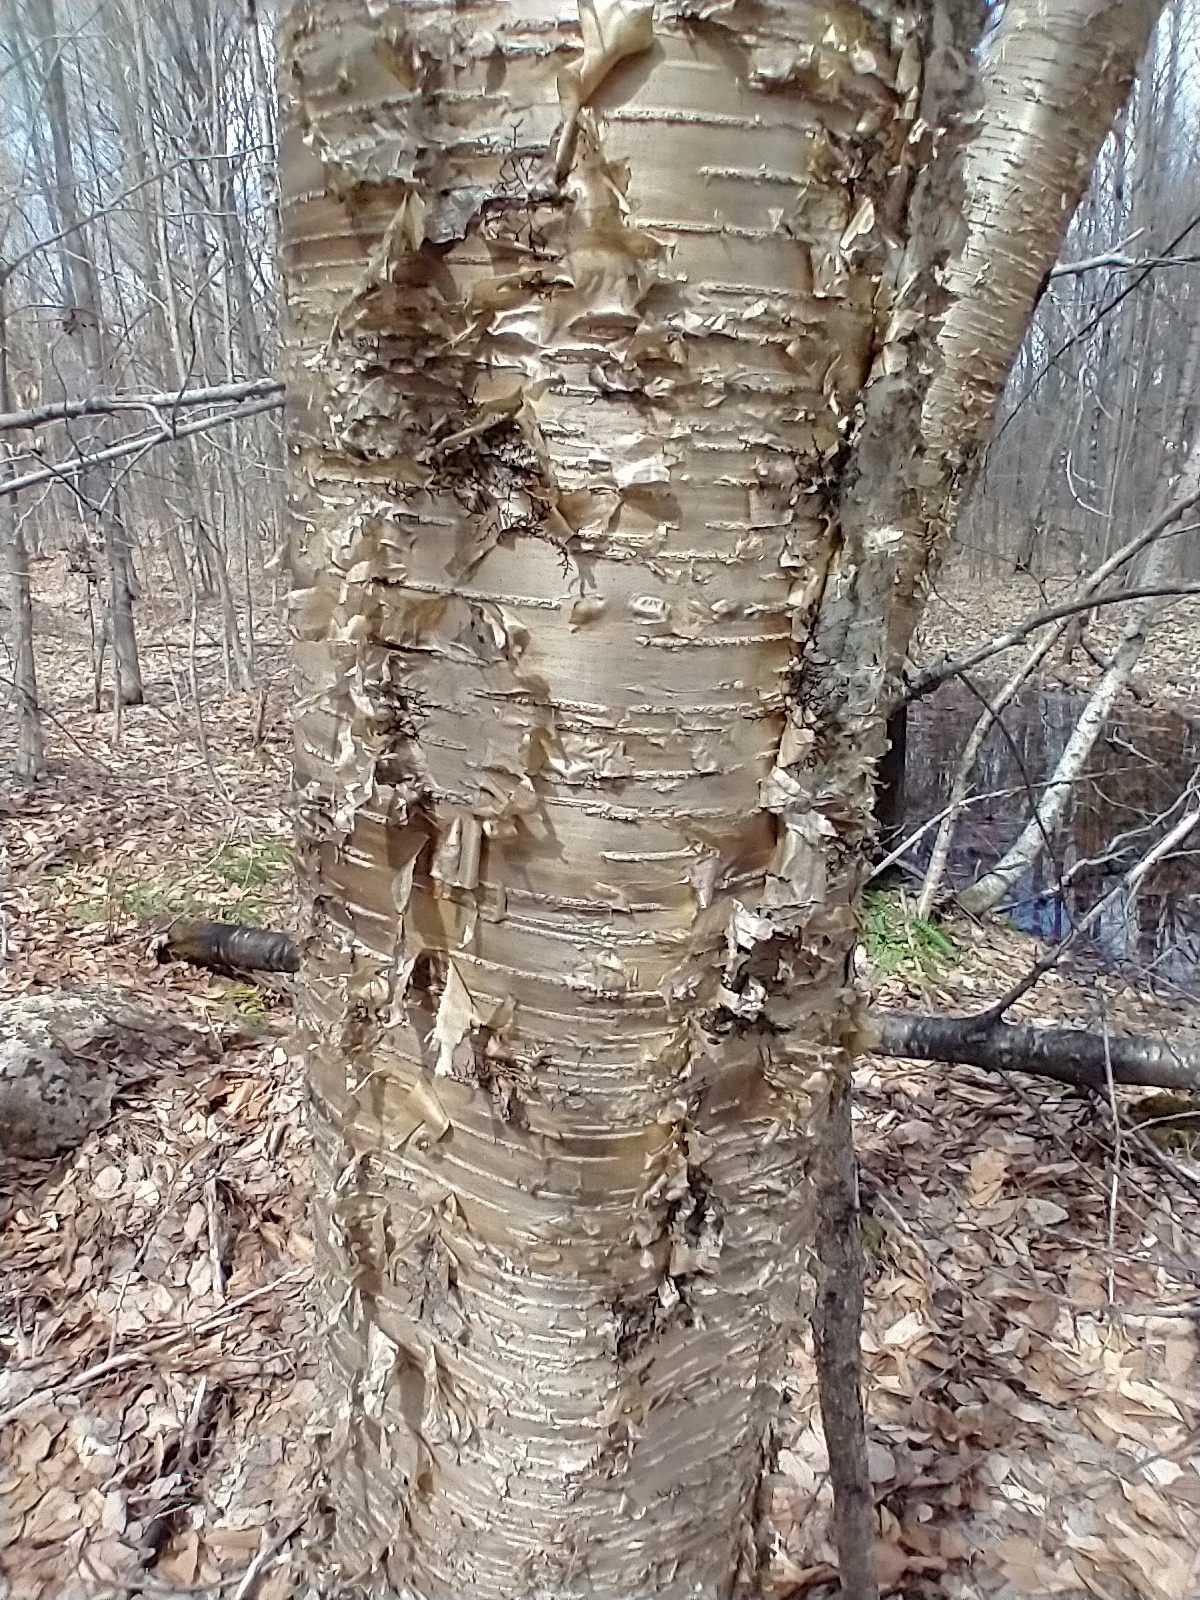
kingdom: Plantae
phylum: Tracheophyta
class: Magnoliopsida
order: Fagales
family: Betulaceae
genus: Betula
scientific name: Betula alleghaniensis
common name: Yellow birch
